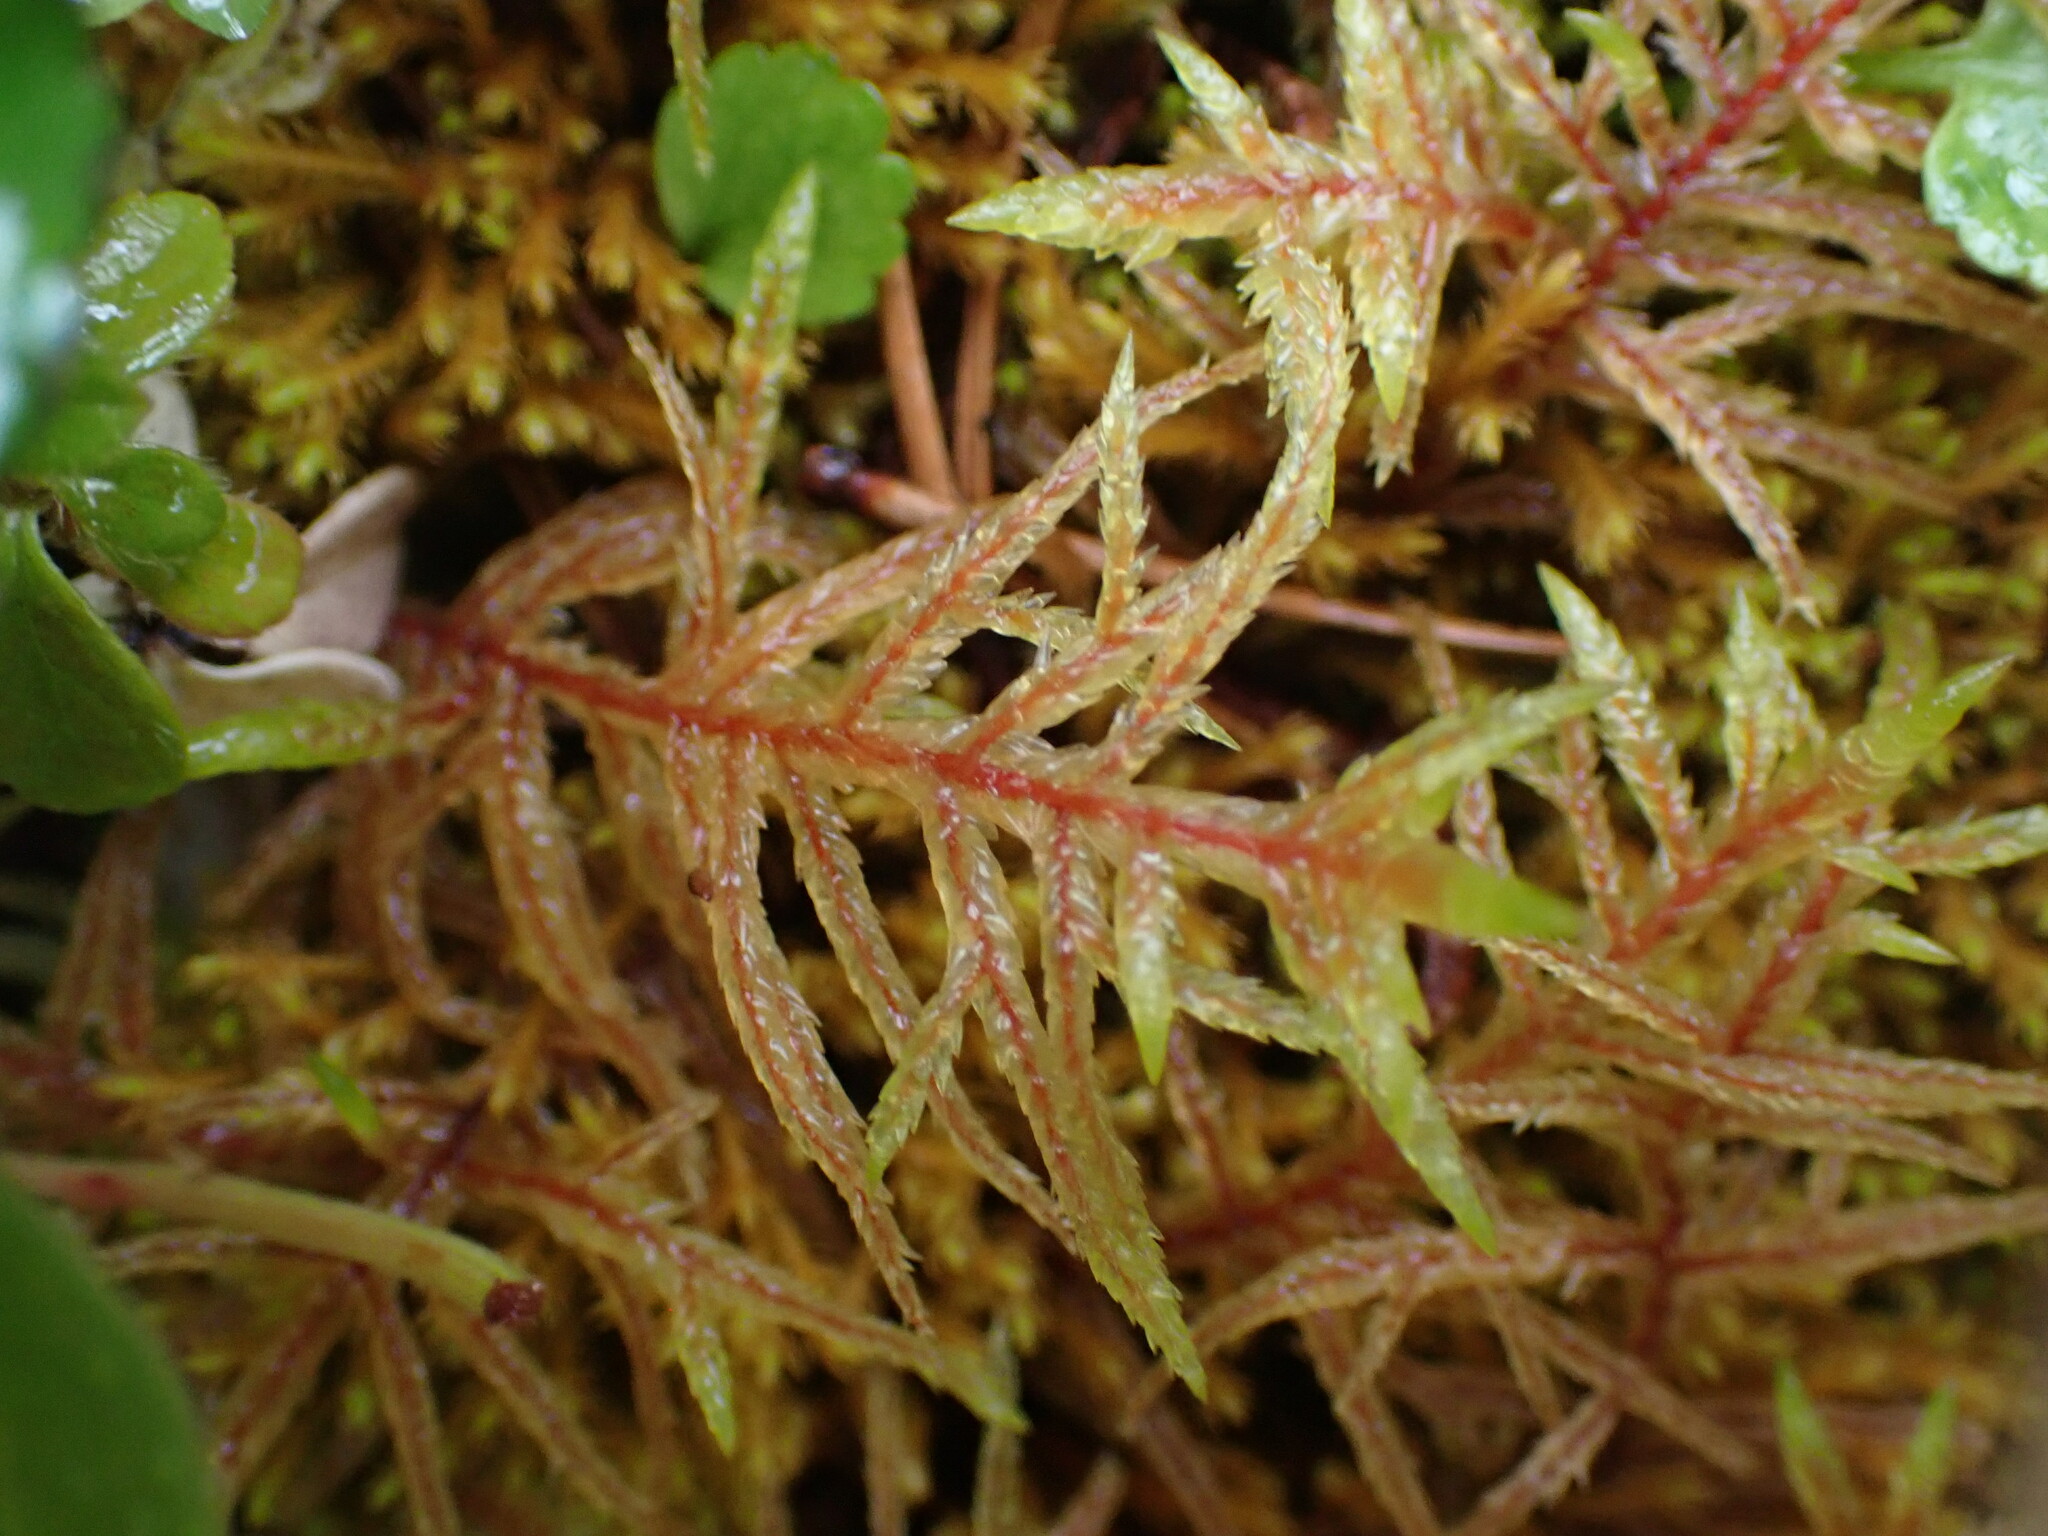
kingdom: Plantae
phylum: Bryophyta
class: Bryopsida
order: Hypnales
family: Hylocomiaceae
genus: Pleurozium
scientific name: Pleurozium schreberi
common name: Red-stemmed feather moss
